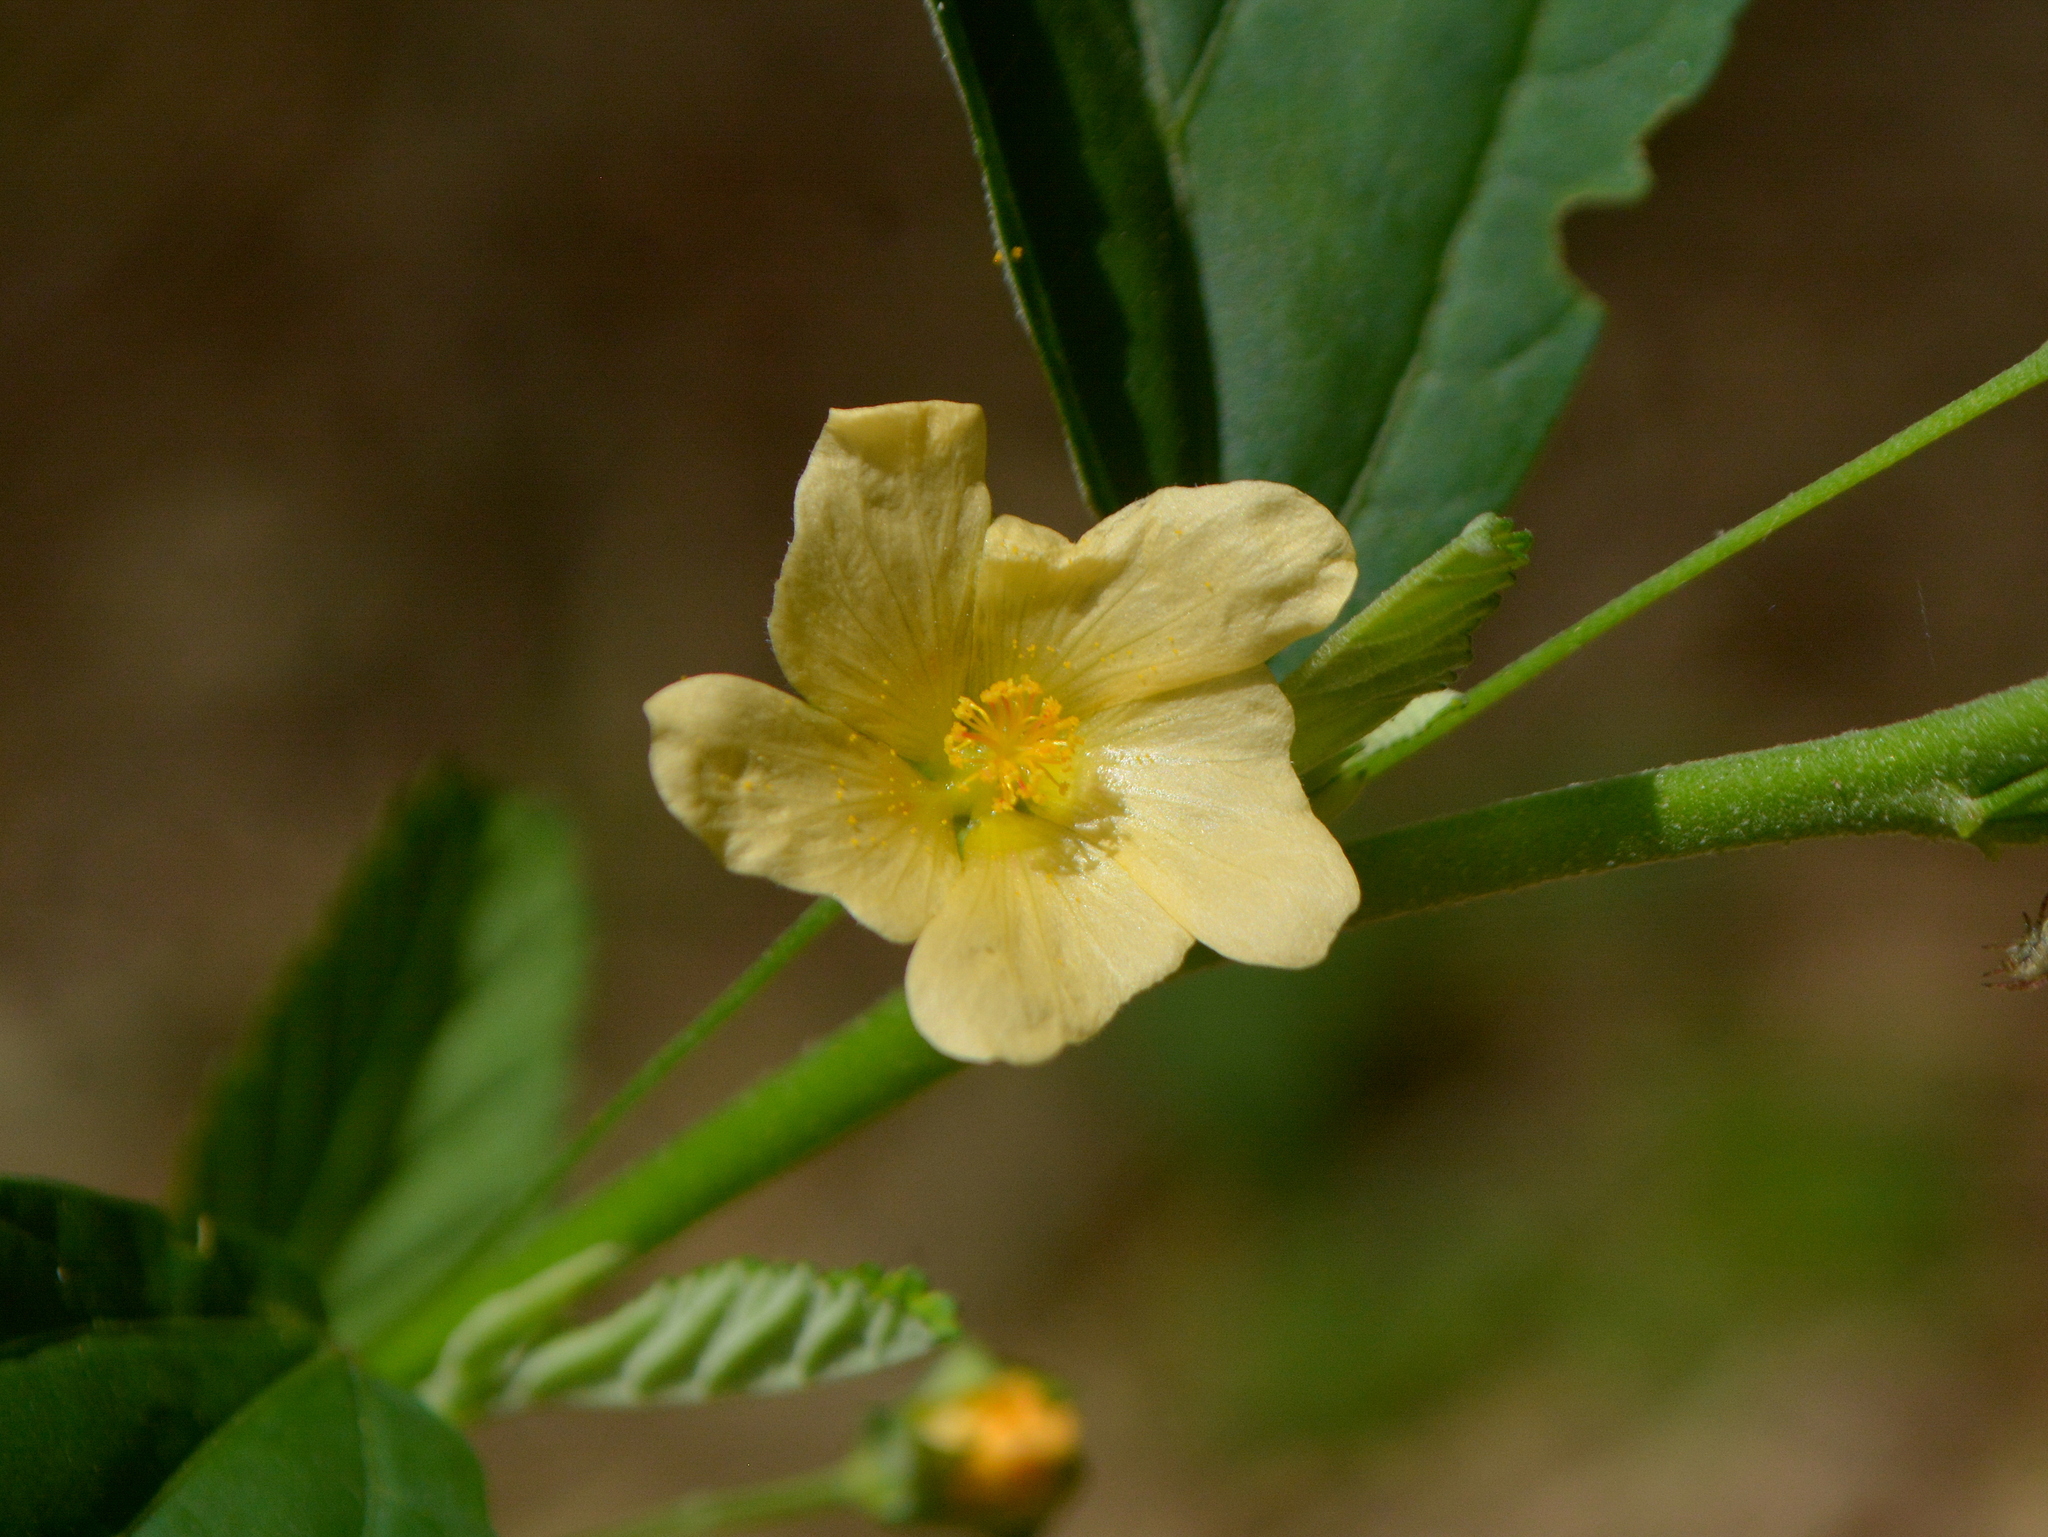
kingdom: Plantae
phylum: Tracheophyta
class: Magnoliopsida
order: Malvales
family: Malvaceae
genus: Sida
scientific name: Sida rhombifolia
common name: Queensland-hemp
